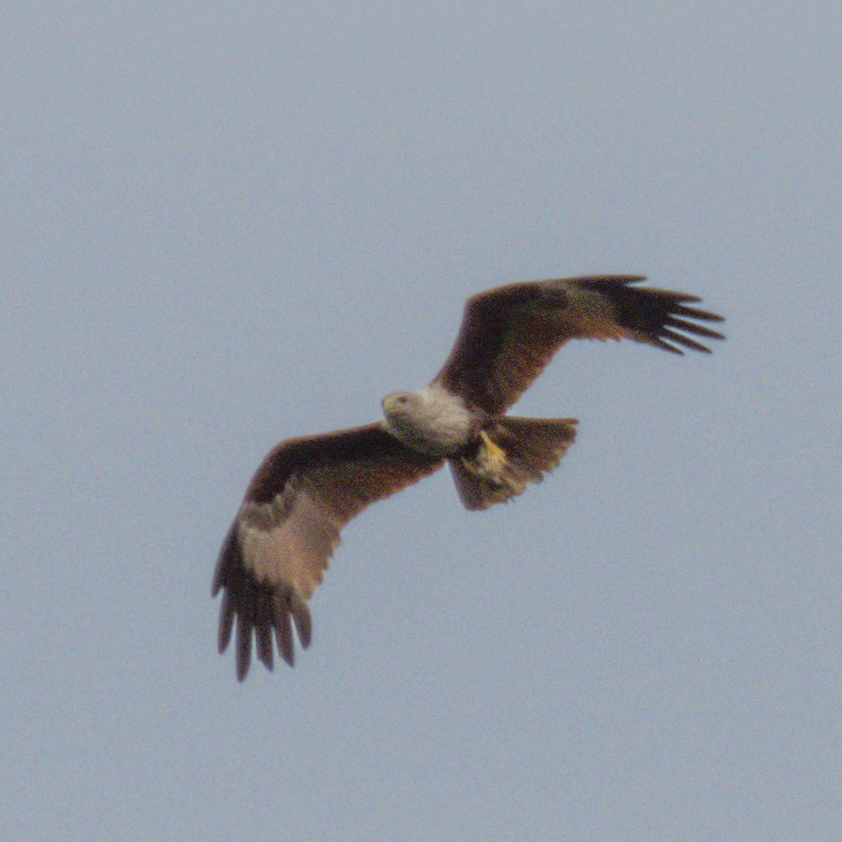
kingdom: Animalia
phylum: Chordata
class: Aves
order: Accipitriformes
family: Accipitridae
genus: Haliastur
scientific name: Haliastur indus
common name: Brahminy kite
